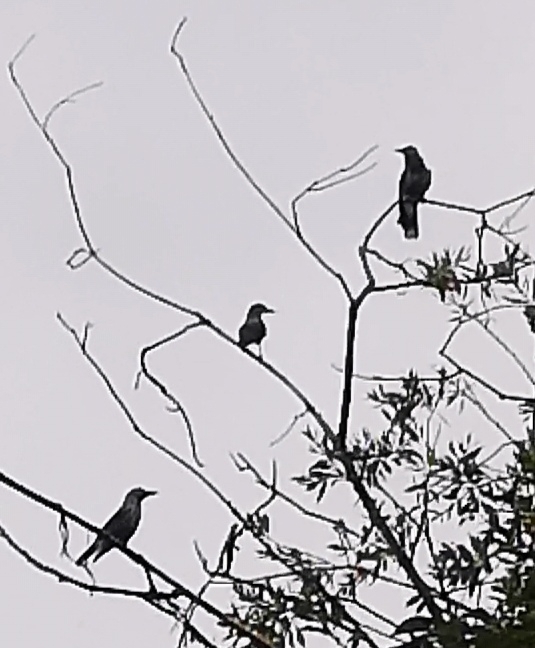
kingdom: Animalia
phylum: Chordata
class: Aves
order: Passeriformes
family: Corvidae
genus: Nucifraga
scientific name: Nucifraga caryocatactes
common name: Spotted nutcracker
